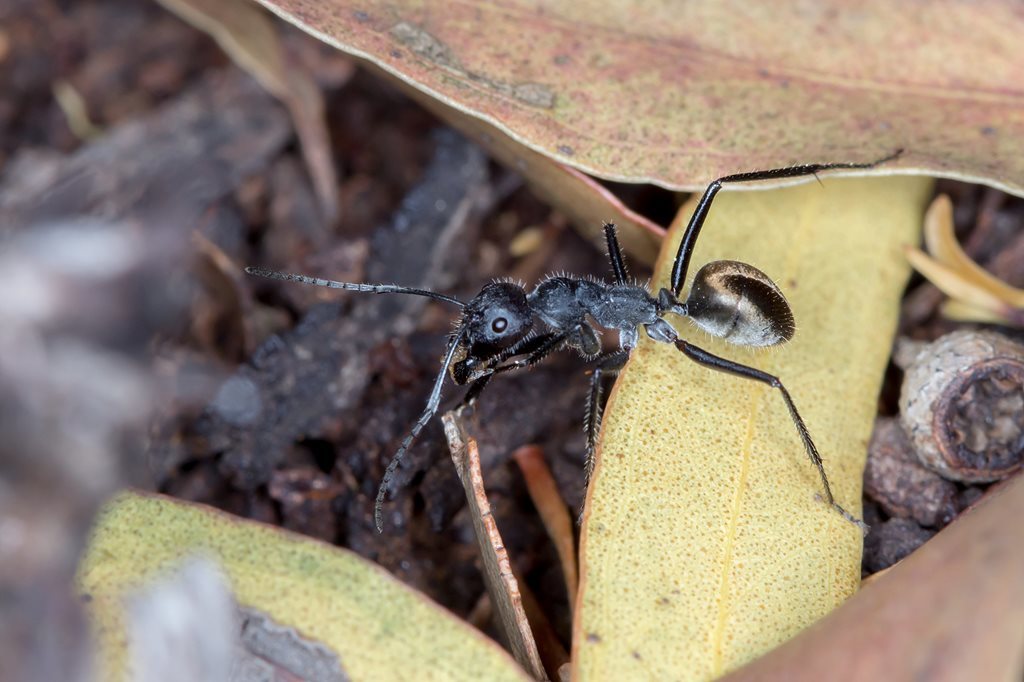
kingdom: Animalia
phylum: Arthropoda
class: Insecta
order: Hymenoptera
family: Formicidae
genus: Camponotus
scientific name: Camponotus suffusus
